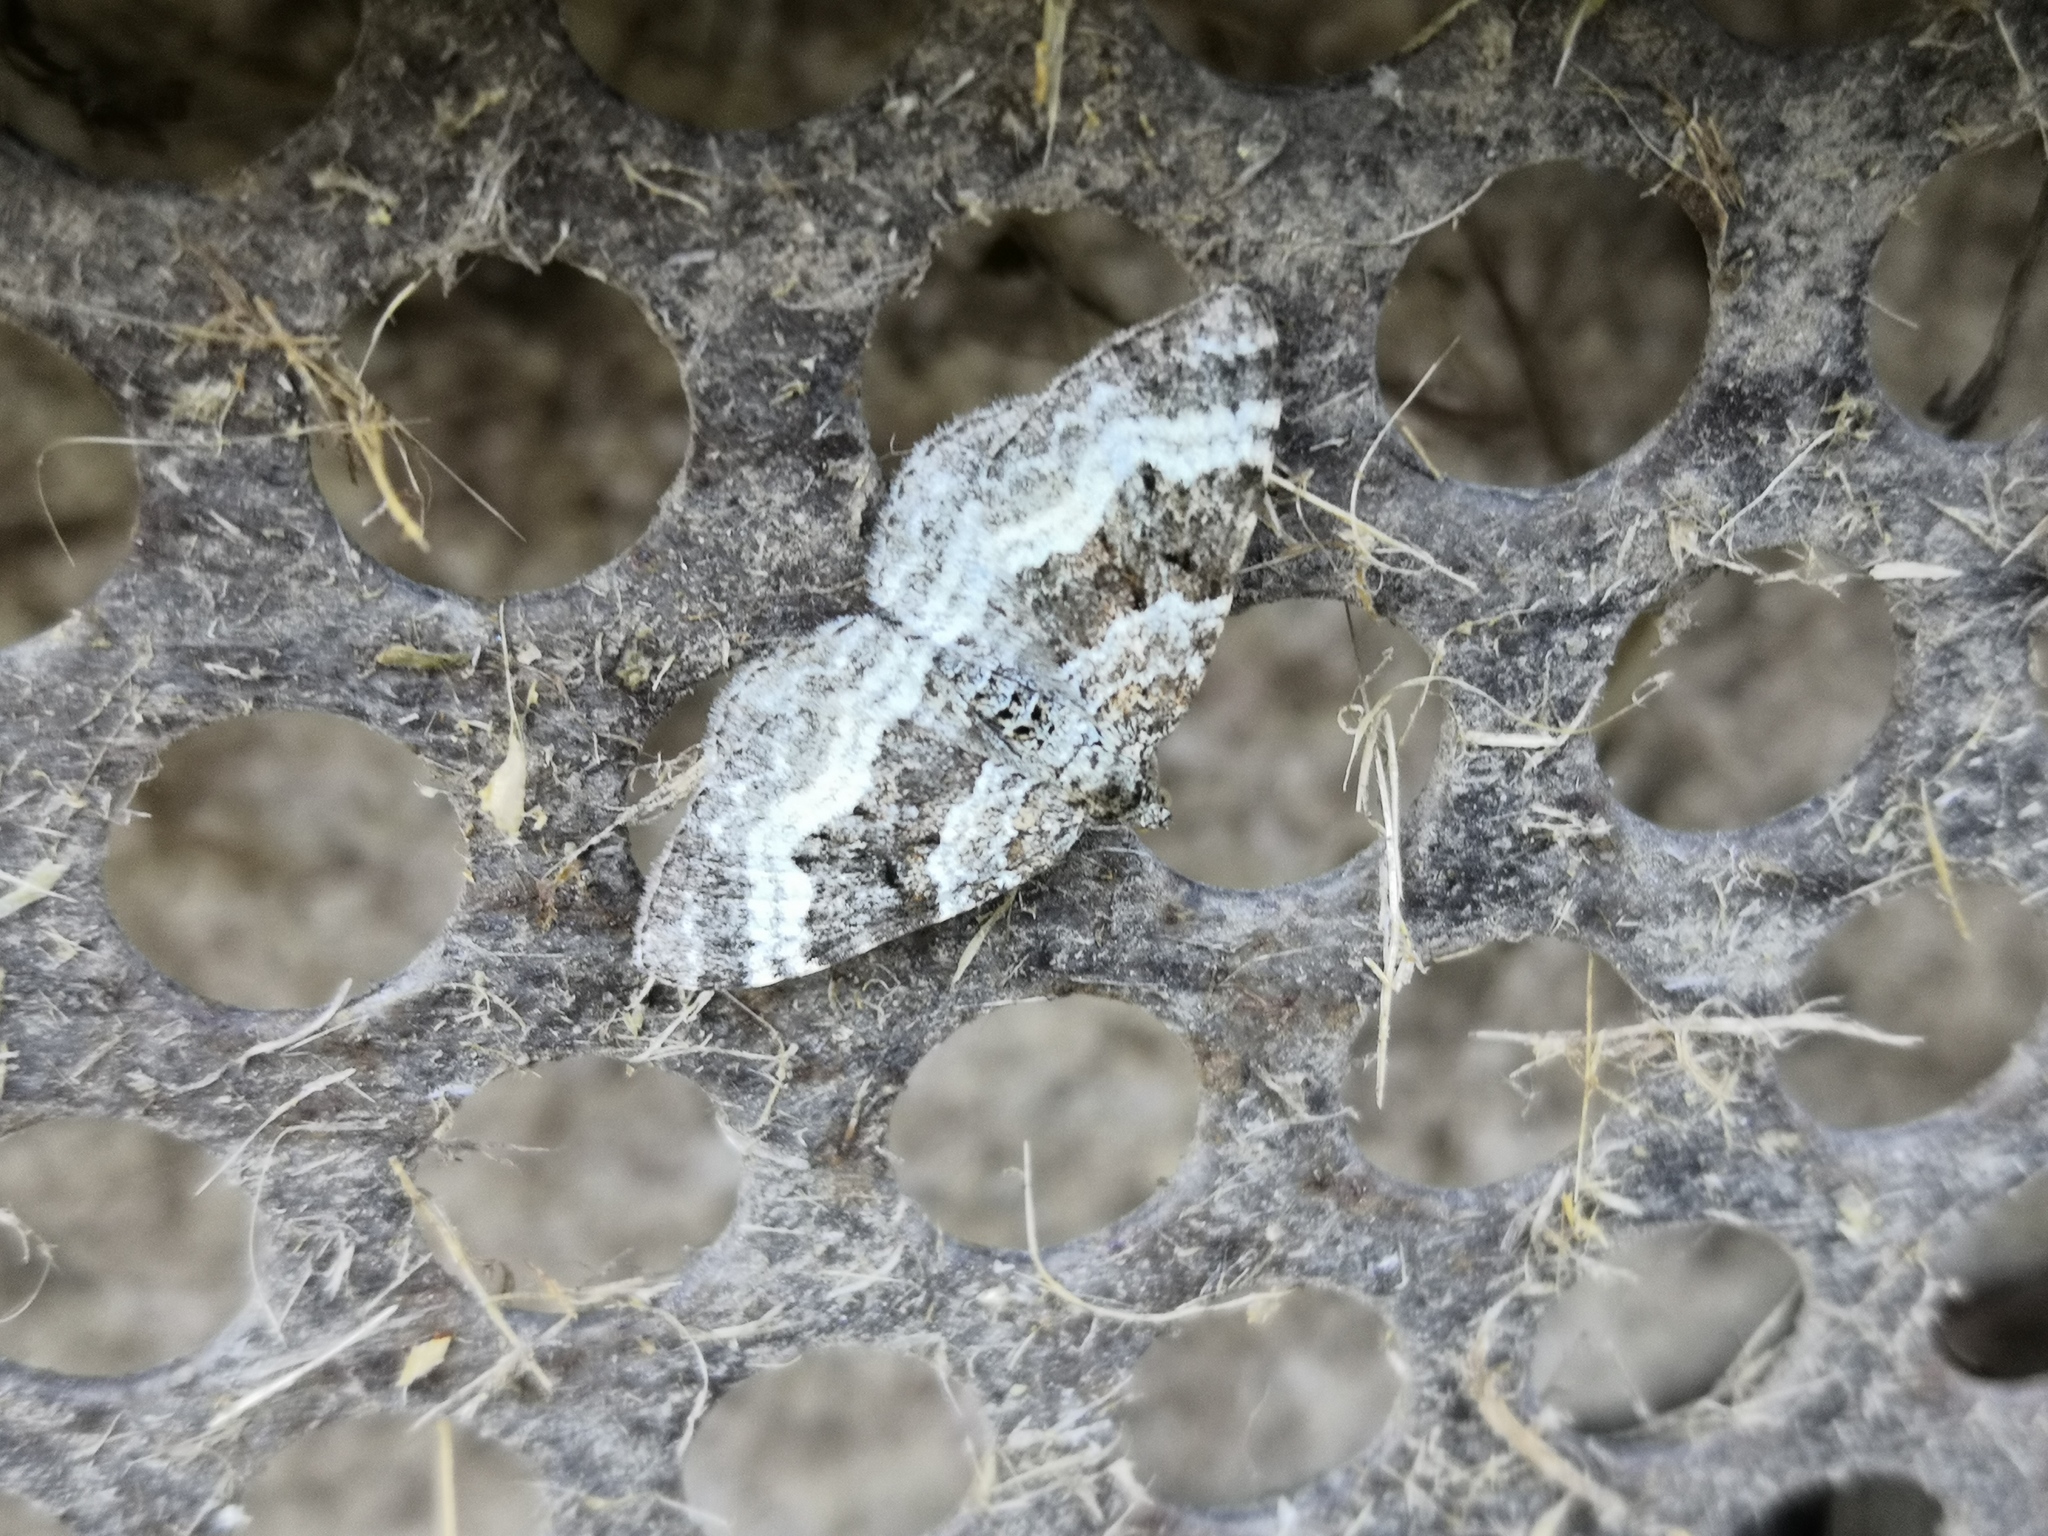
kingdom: Animalia
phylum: Arthropoda
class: Insecta
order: Lepidoptera
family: Geometridae
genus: Epirrhoe
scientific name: Epirrhoe alternata
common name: Common carpet
